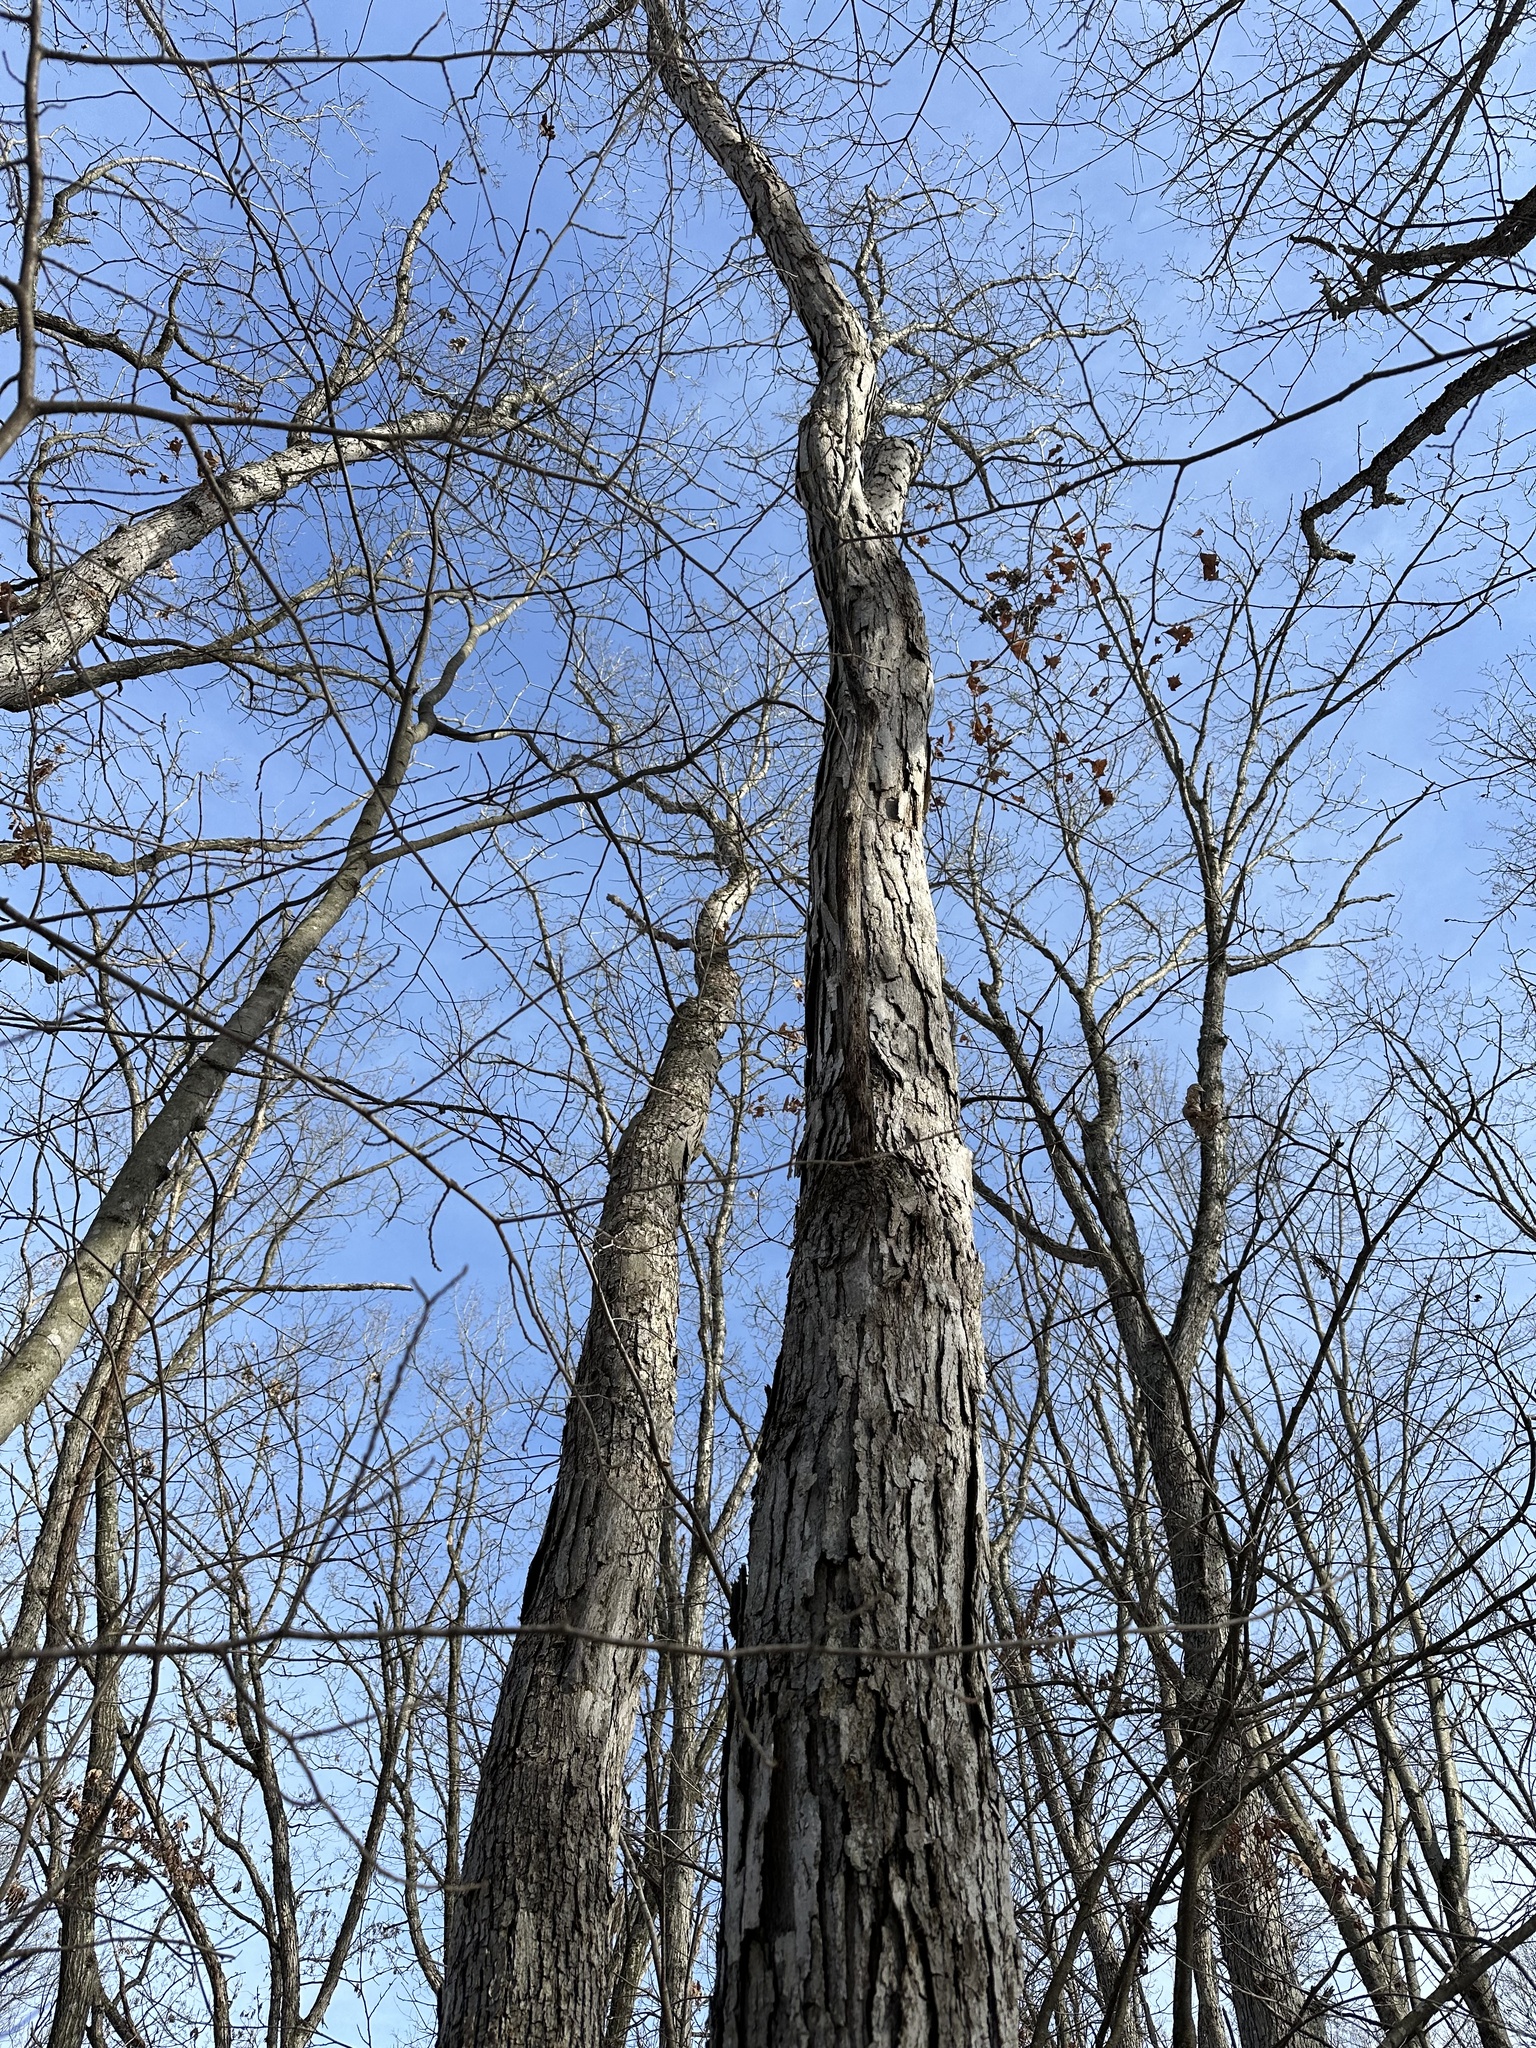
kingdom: Plantae
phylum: Tracheophyta
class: Magnoliopsida
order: Fagales
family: Fagaceae
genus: Quercus
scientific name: Quercus alba
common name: White oak
